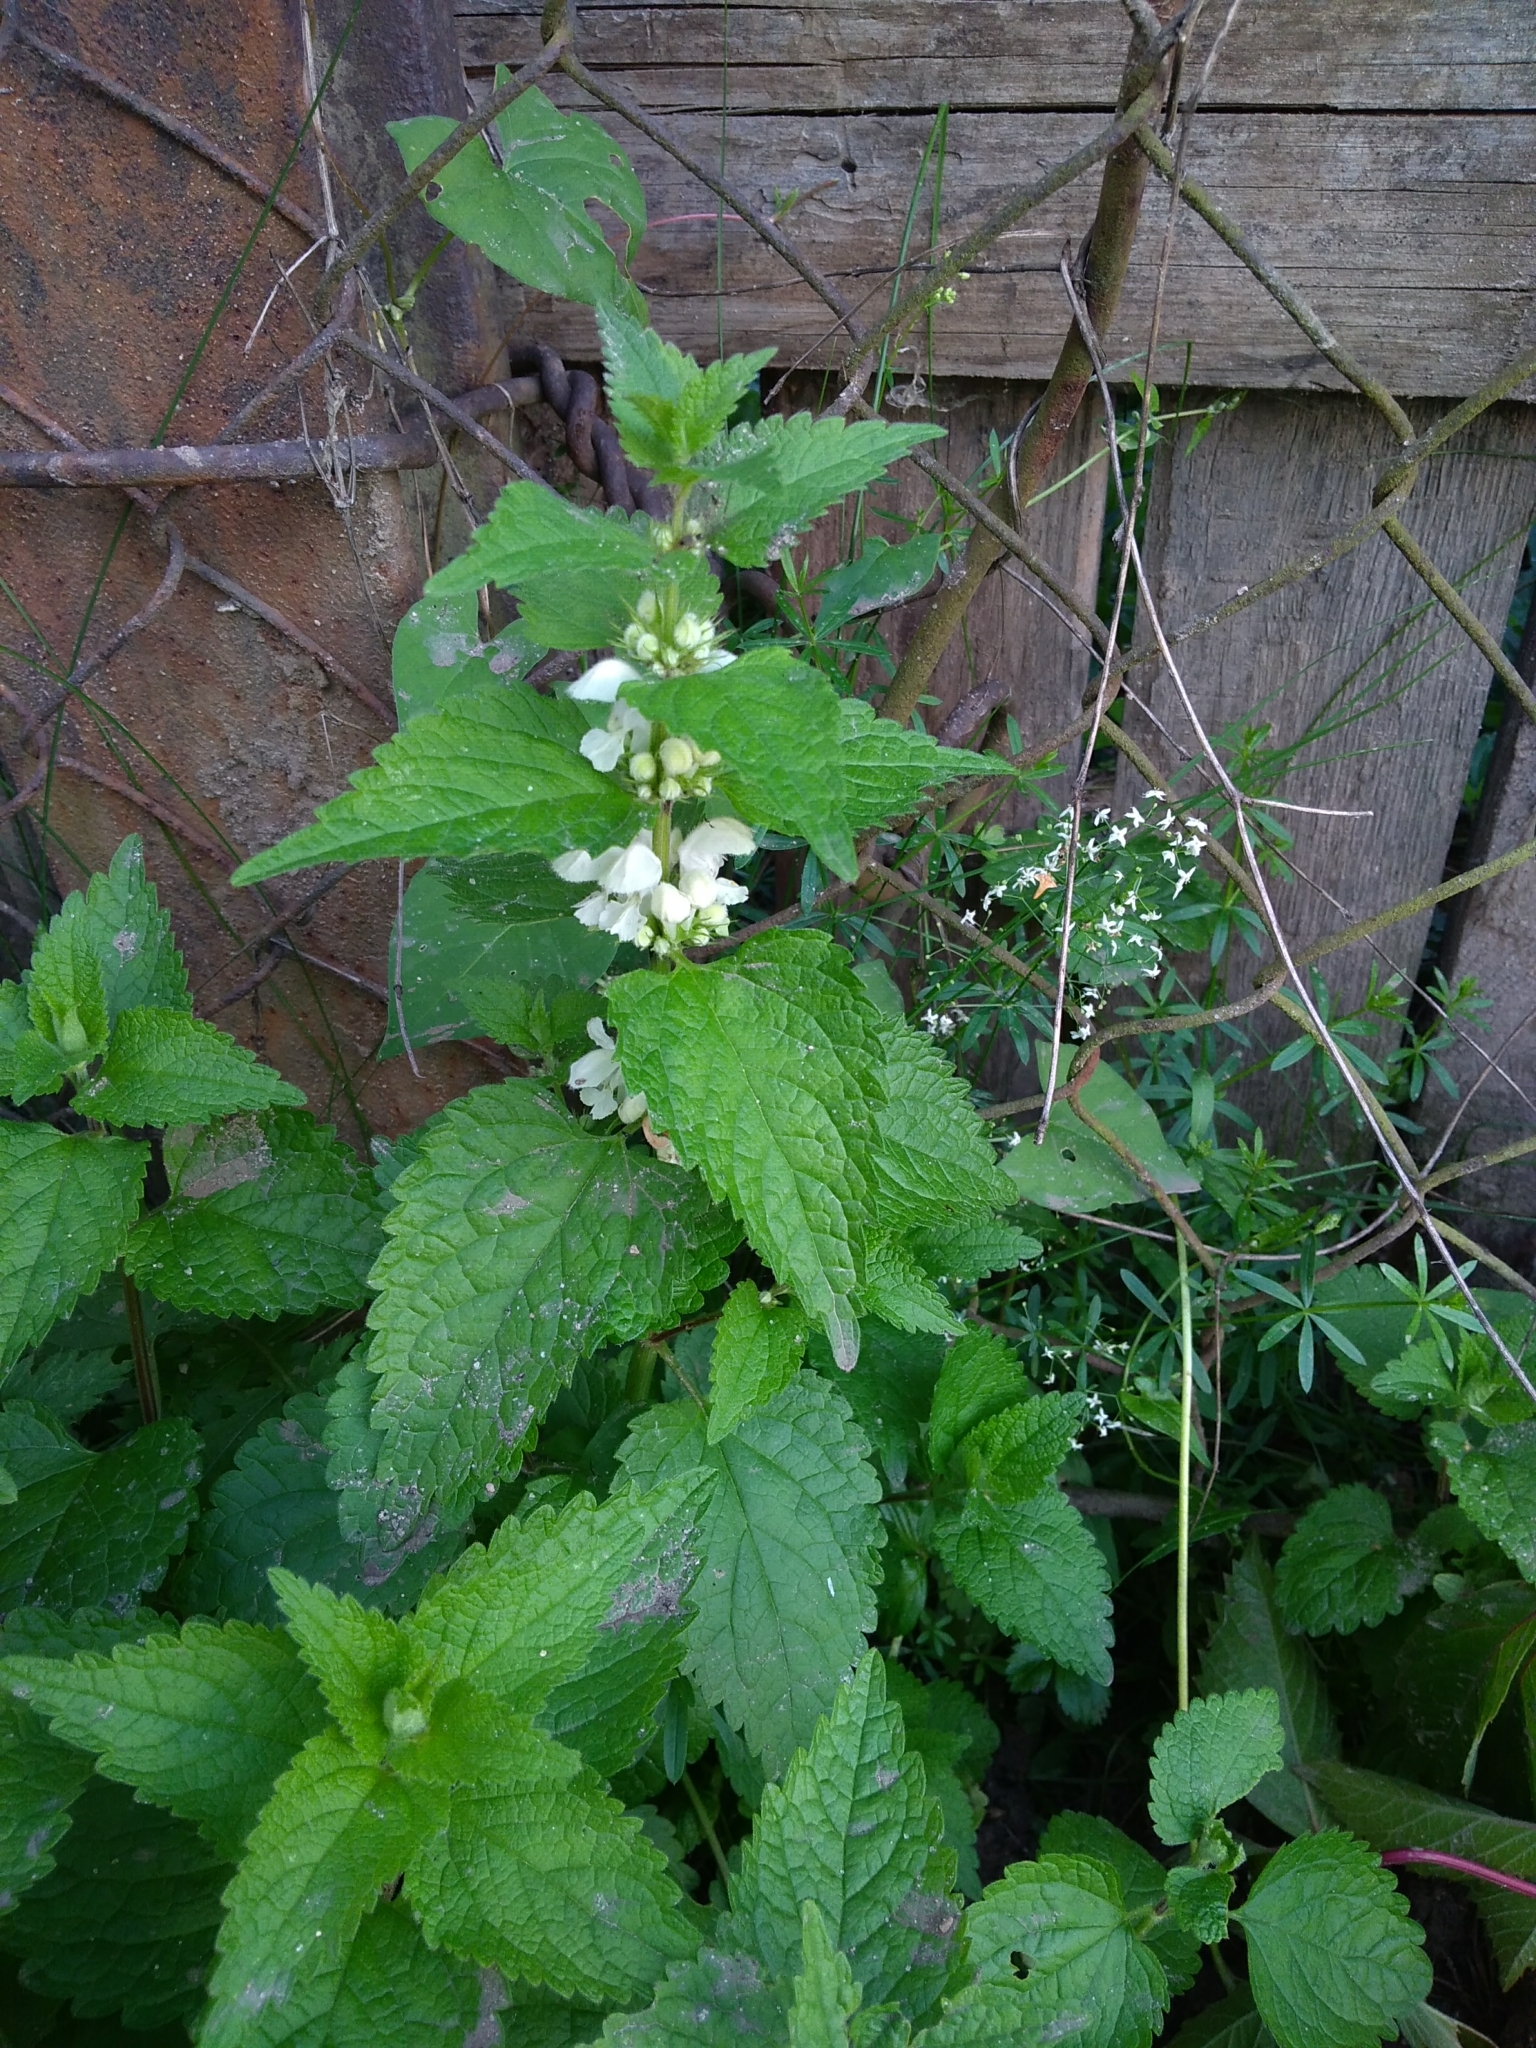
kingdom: Plantae
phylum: Tracheophyta
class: Magnoliopsida
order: Lamiales
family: Lamiaceae
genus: Lamium
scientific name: Lamium album
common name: White dead-nettle
